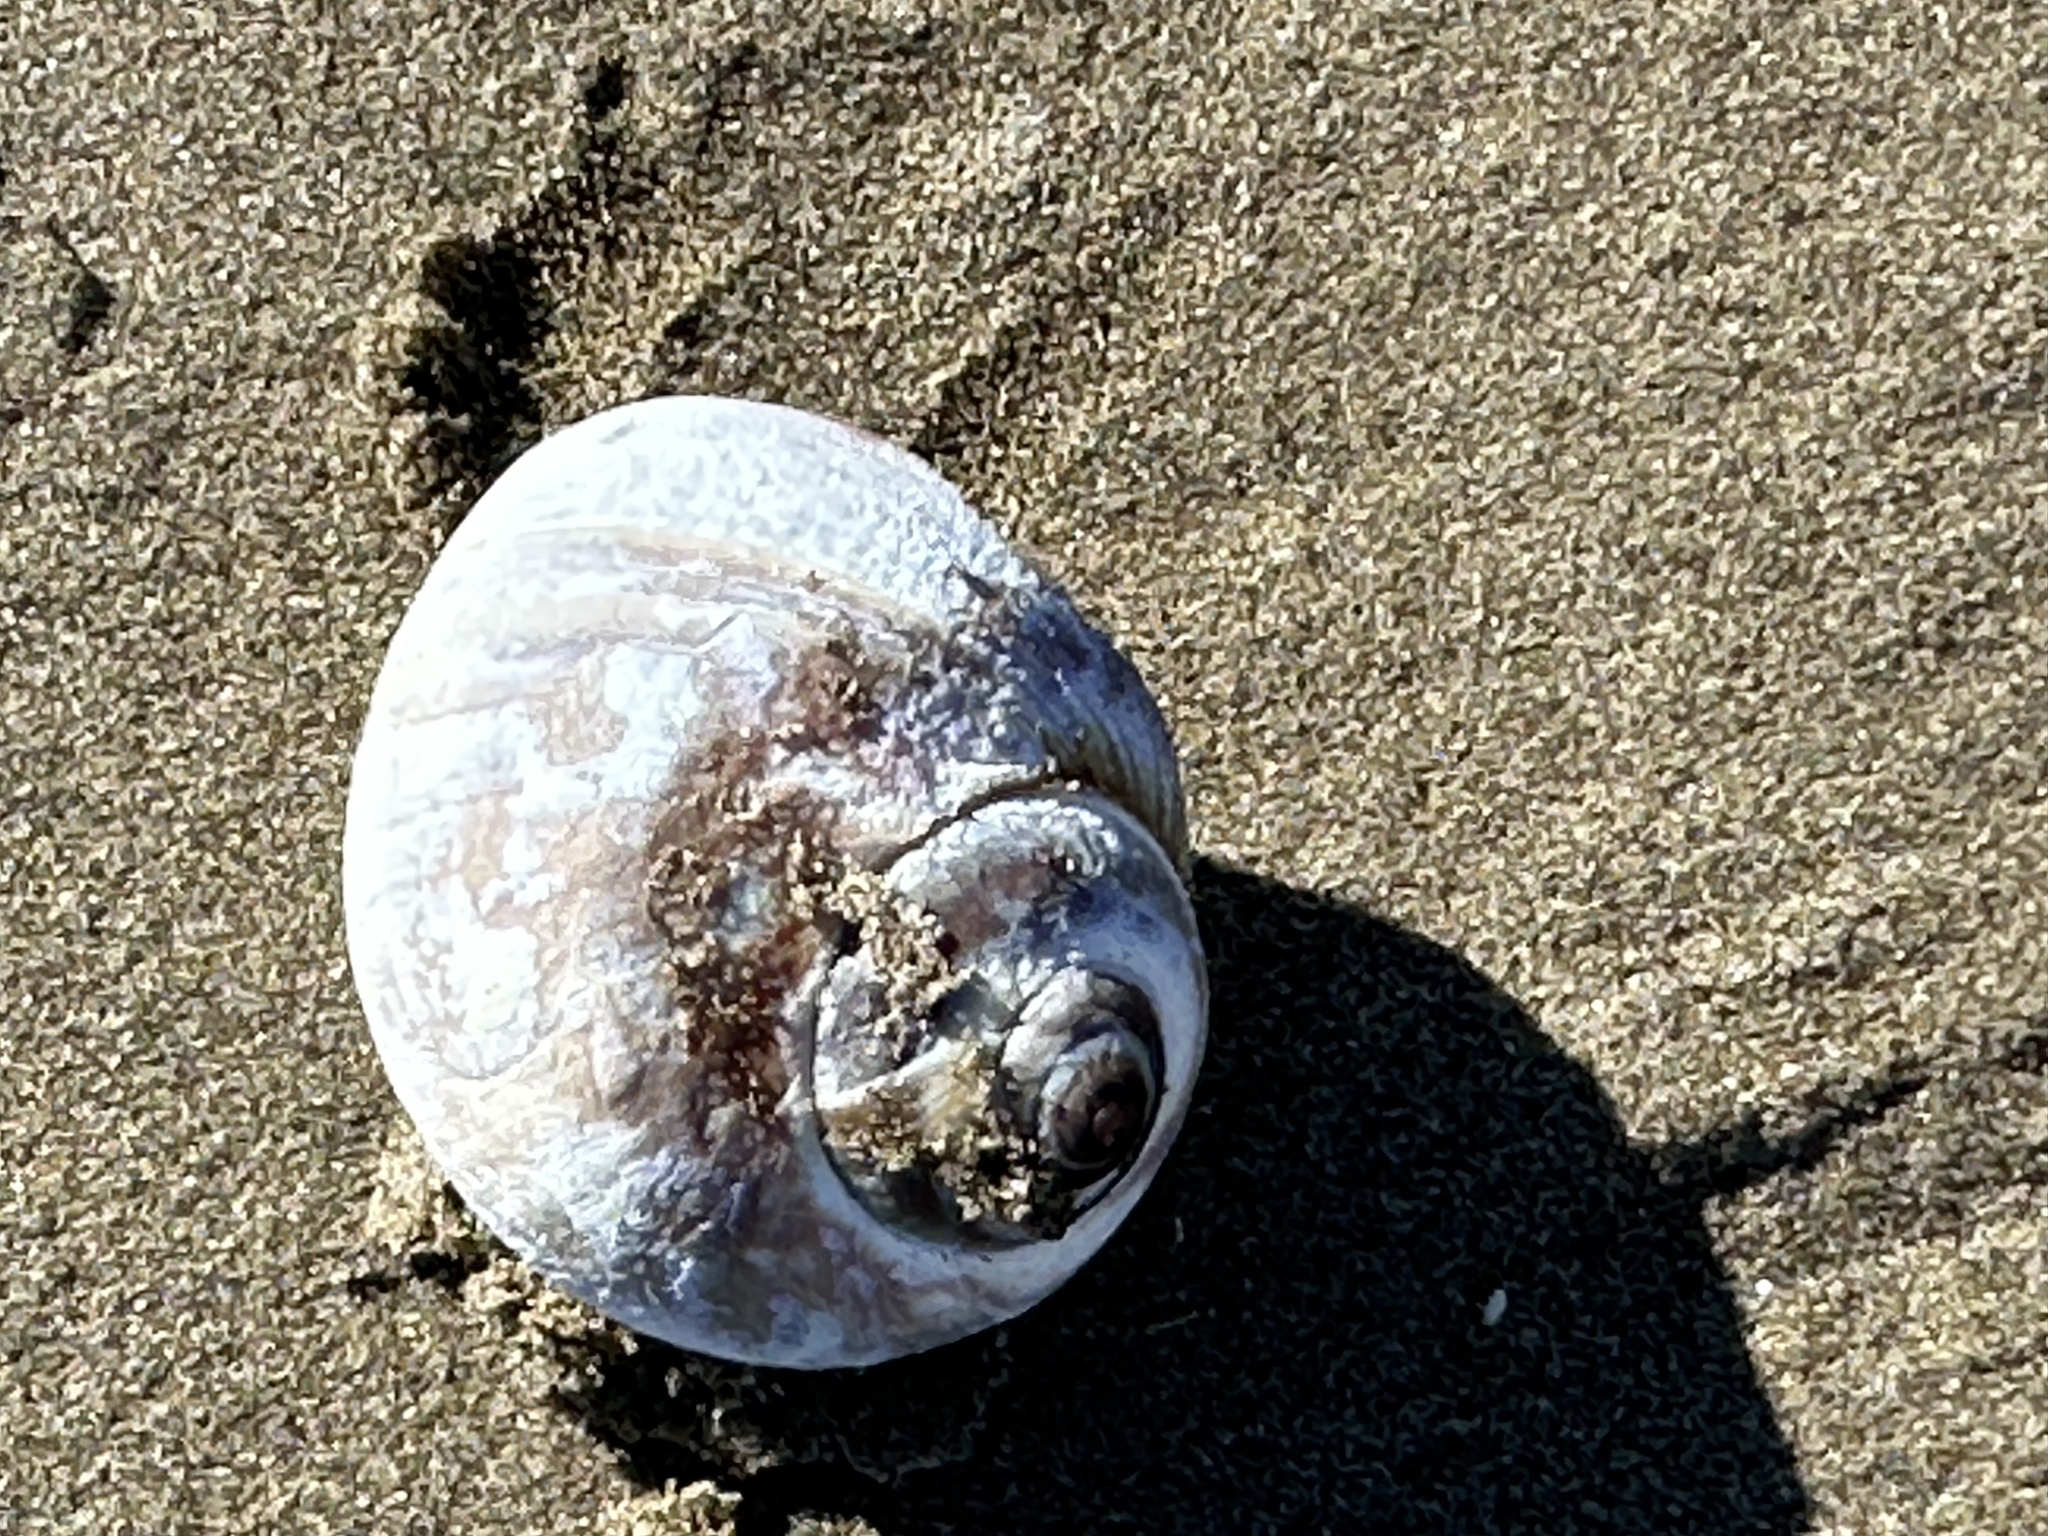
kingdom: Animalia
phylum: Mollusca
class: Gastropoda
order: Littorinimorpha
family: Naticidae
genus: Euspira
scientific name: Euspira heros
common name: Common northern moonsnail
